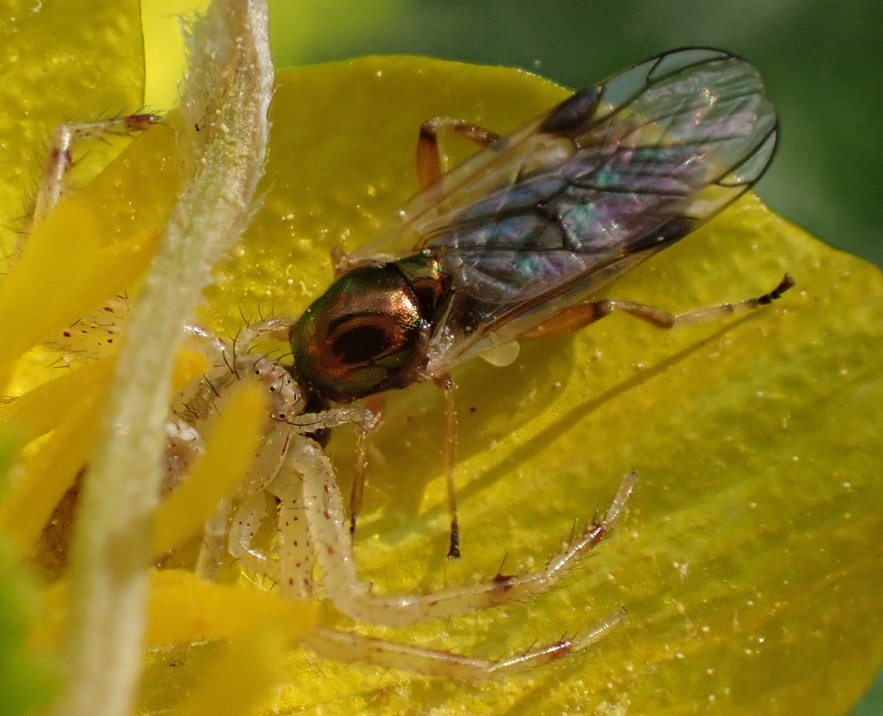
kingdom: Animalia
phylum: Arthropoda
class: Insecta
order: Diptera
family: Stratiomyidae
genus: Actina
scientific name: Actina viridis
